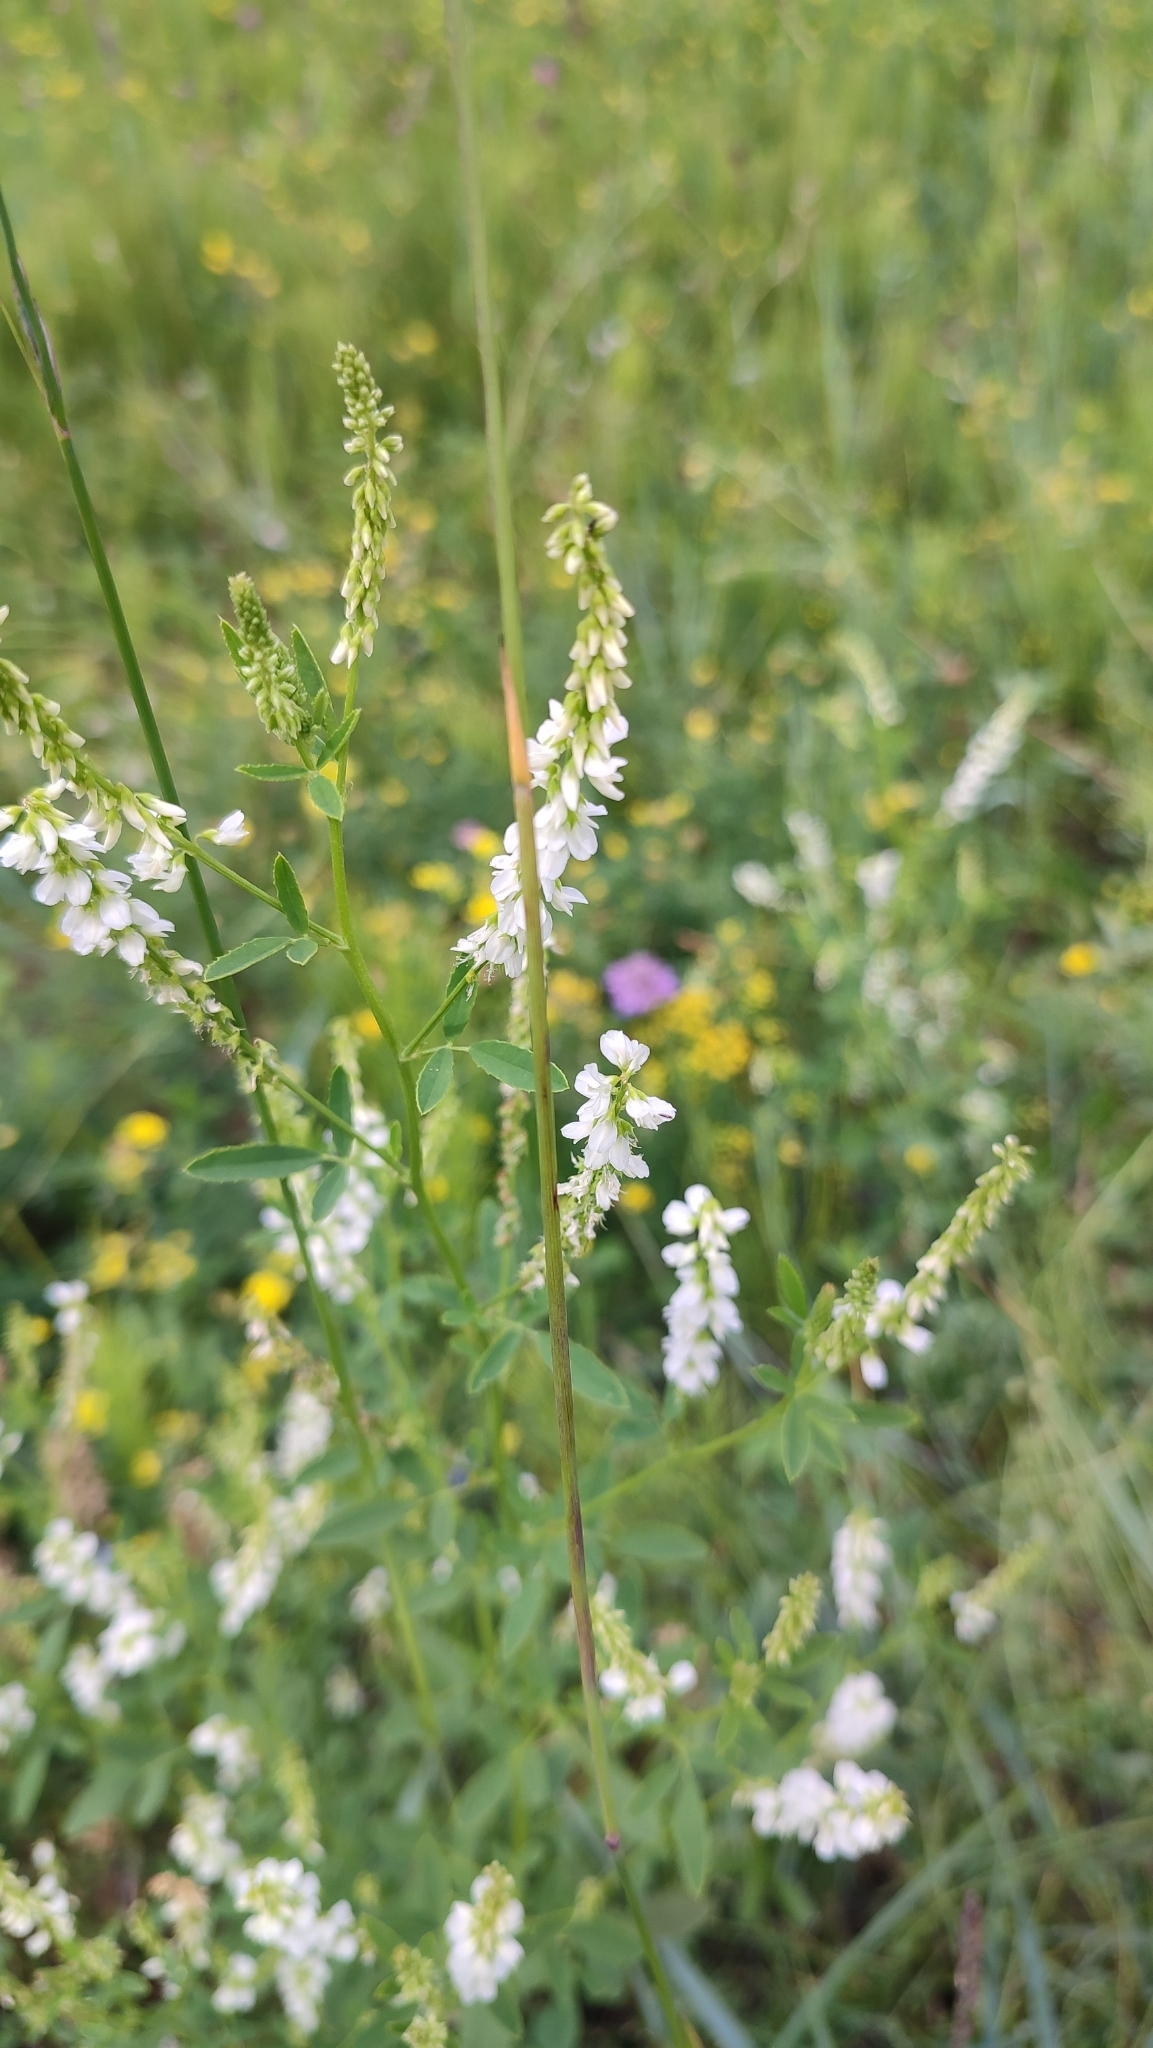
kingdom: Plantae
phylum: Tracheophyta
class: Magnoliopsida
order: Fabales
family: Fabaceae
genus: Melilotus
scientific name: Melilotus albus
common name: White melilot
